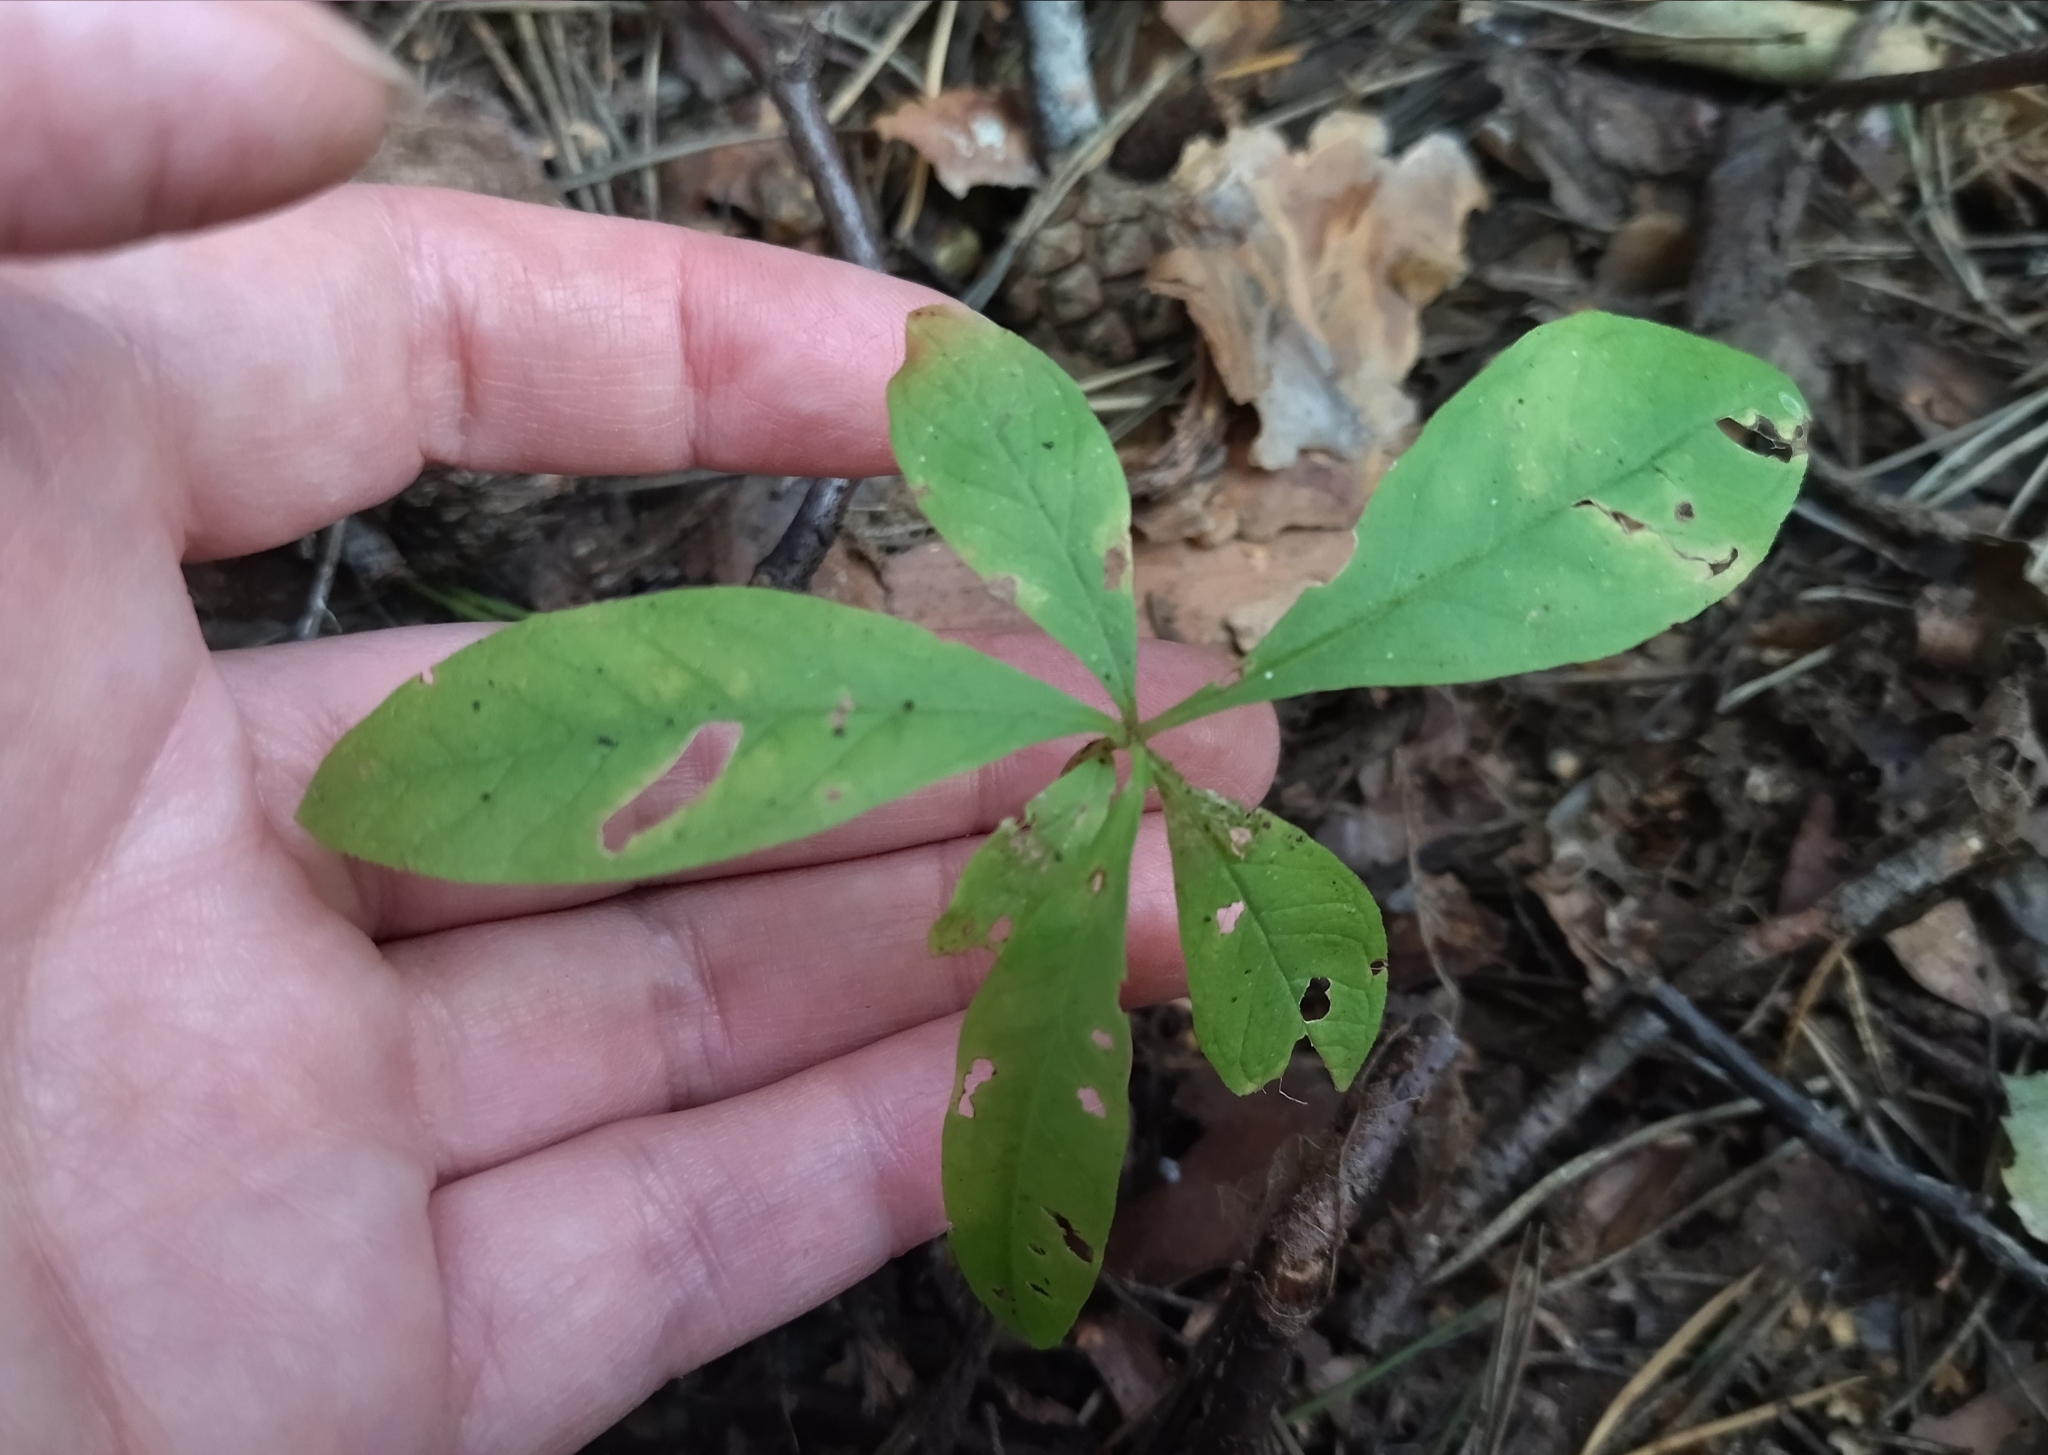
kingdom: Plantae
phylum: Tracheophyta
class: Magnoliopsida
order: Ericales
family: Primulaceae
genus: Lysimachia
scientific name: Lysimachia europaea
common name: Arctic starflower
